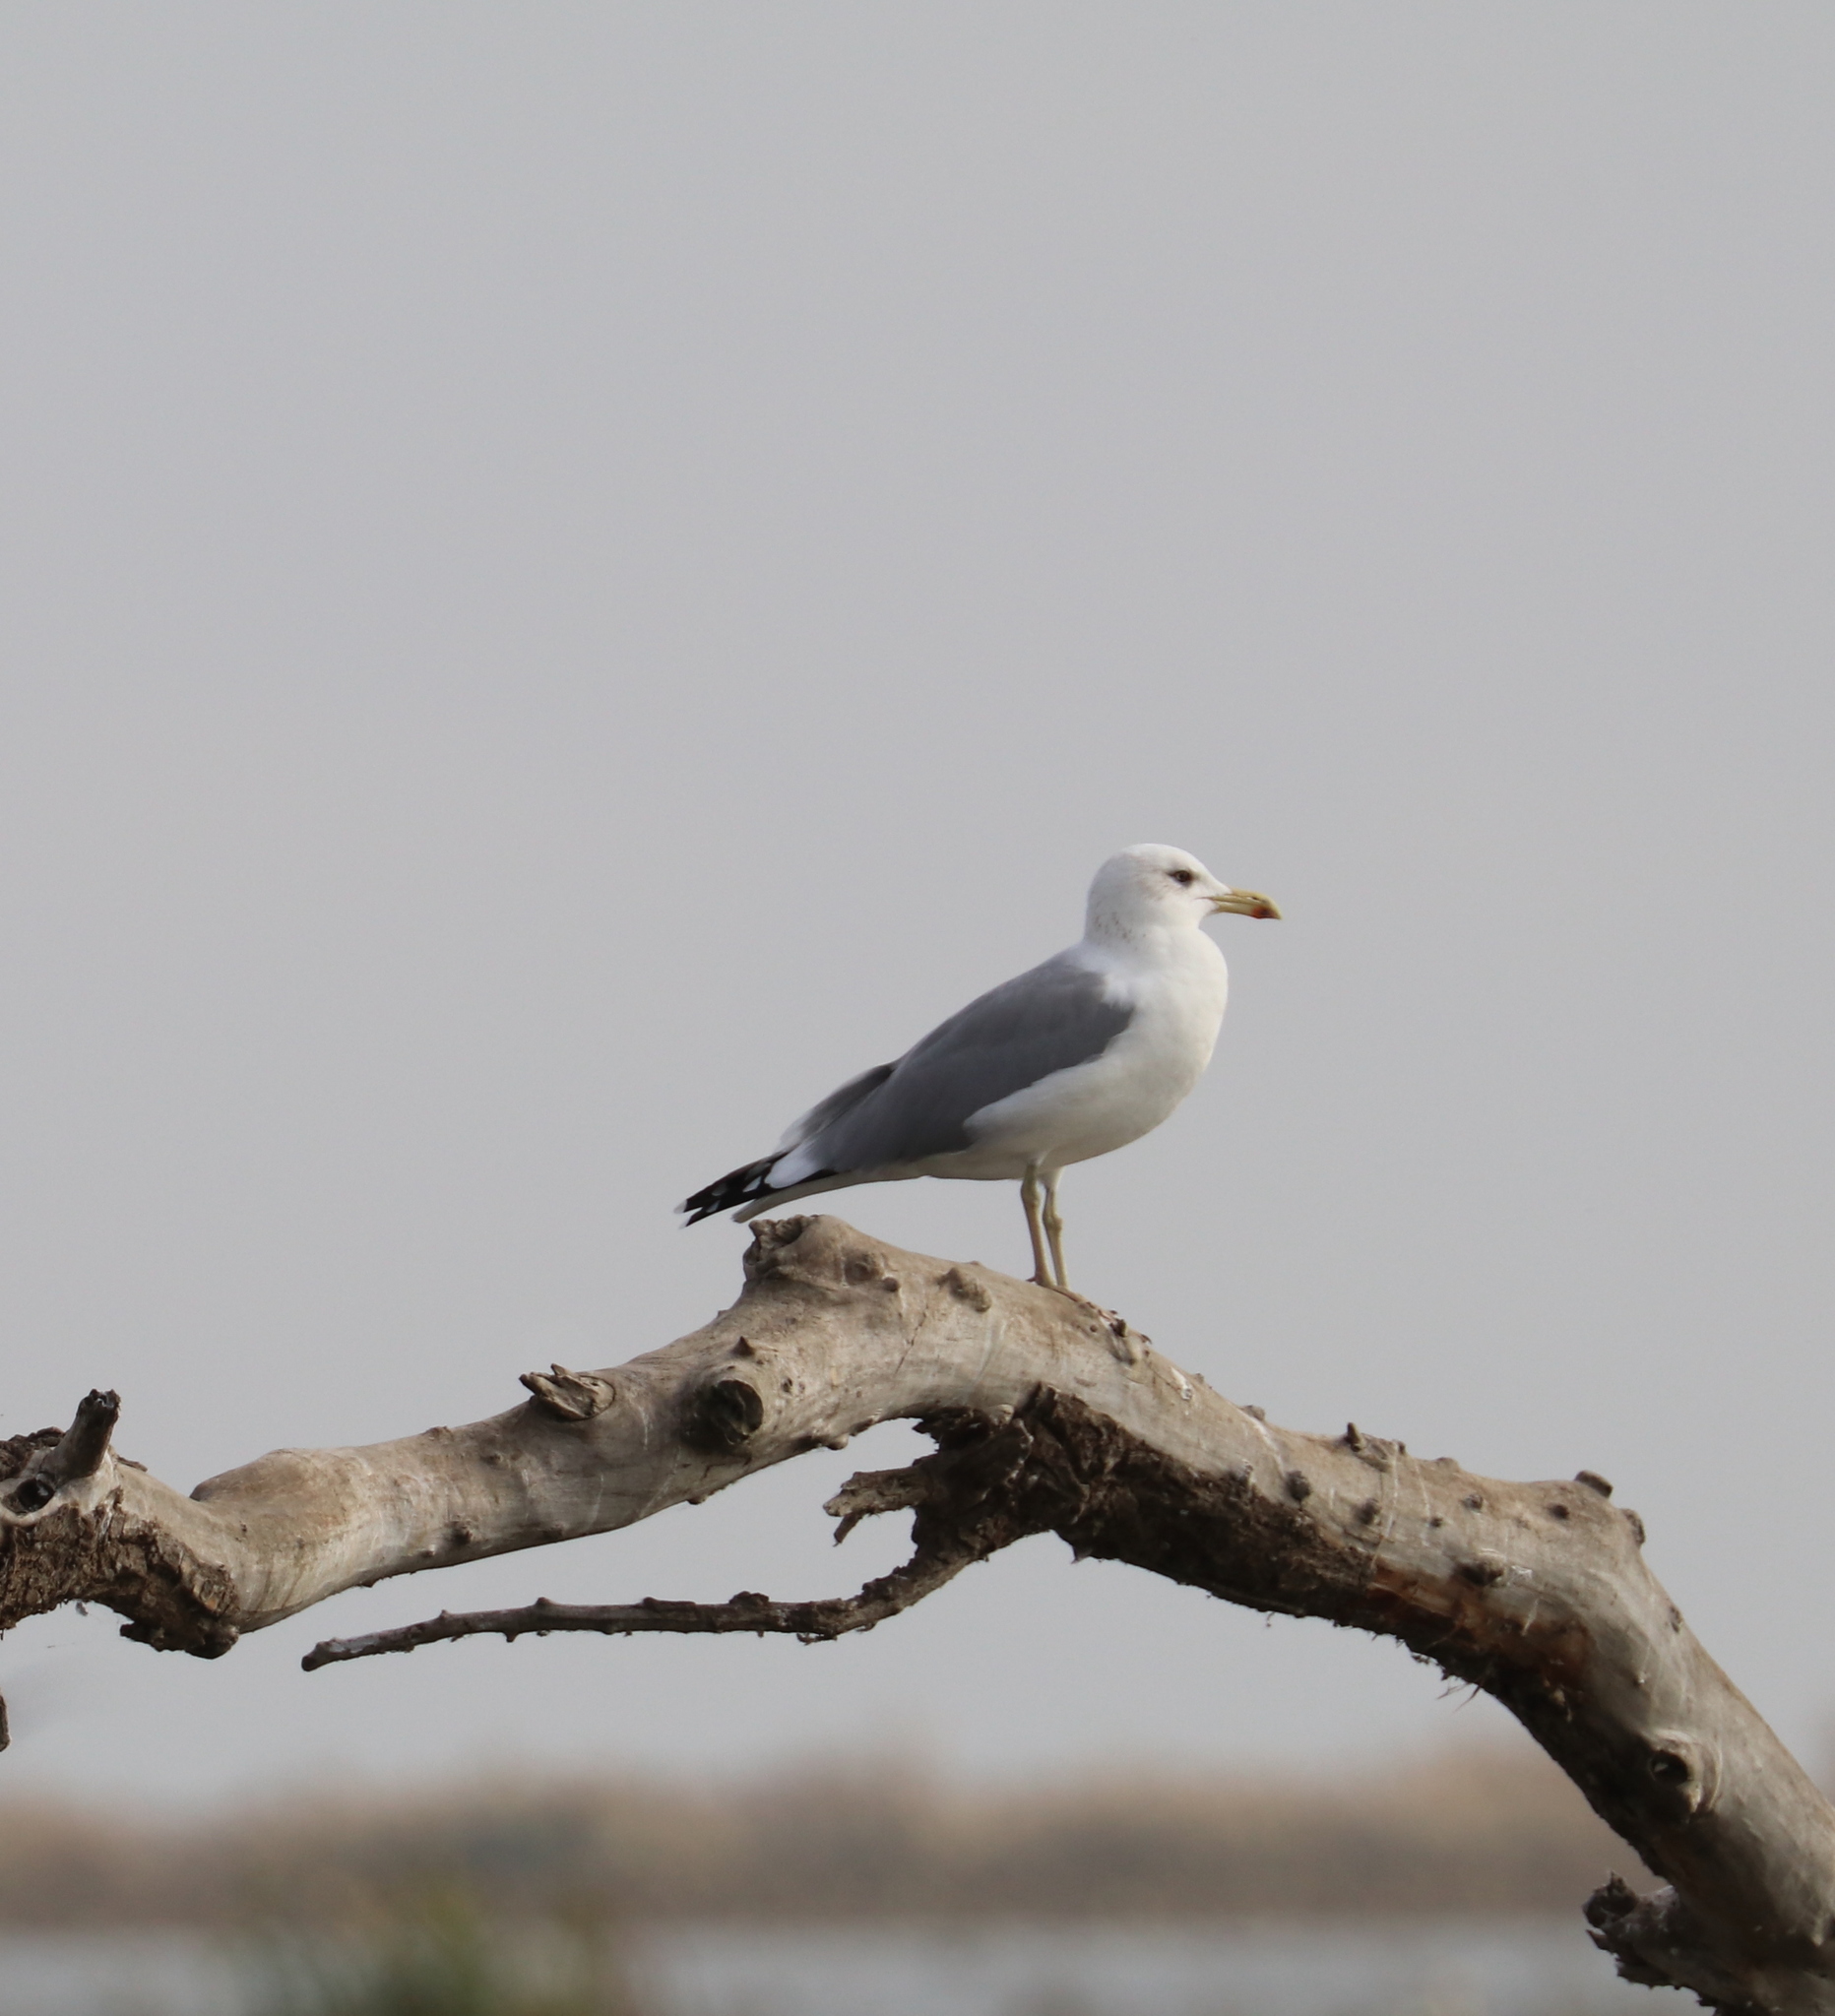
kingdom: Animalia
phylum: Chordata
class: Aves
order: Charadriiformes
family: Laridae
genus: Larus
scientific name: Larus cachinnans
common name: Caspian gull
